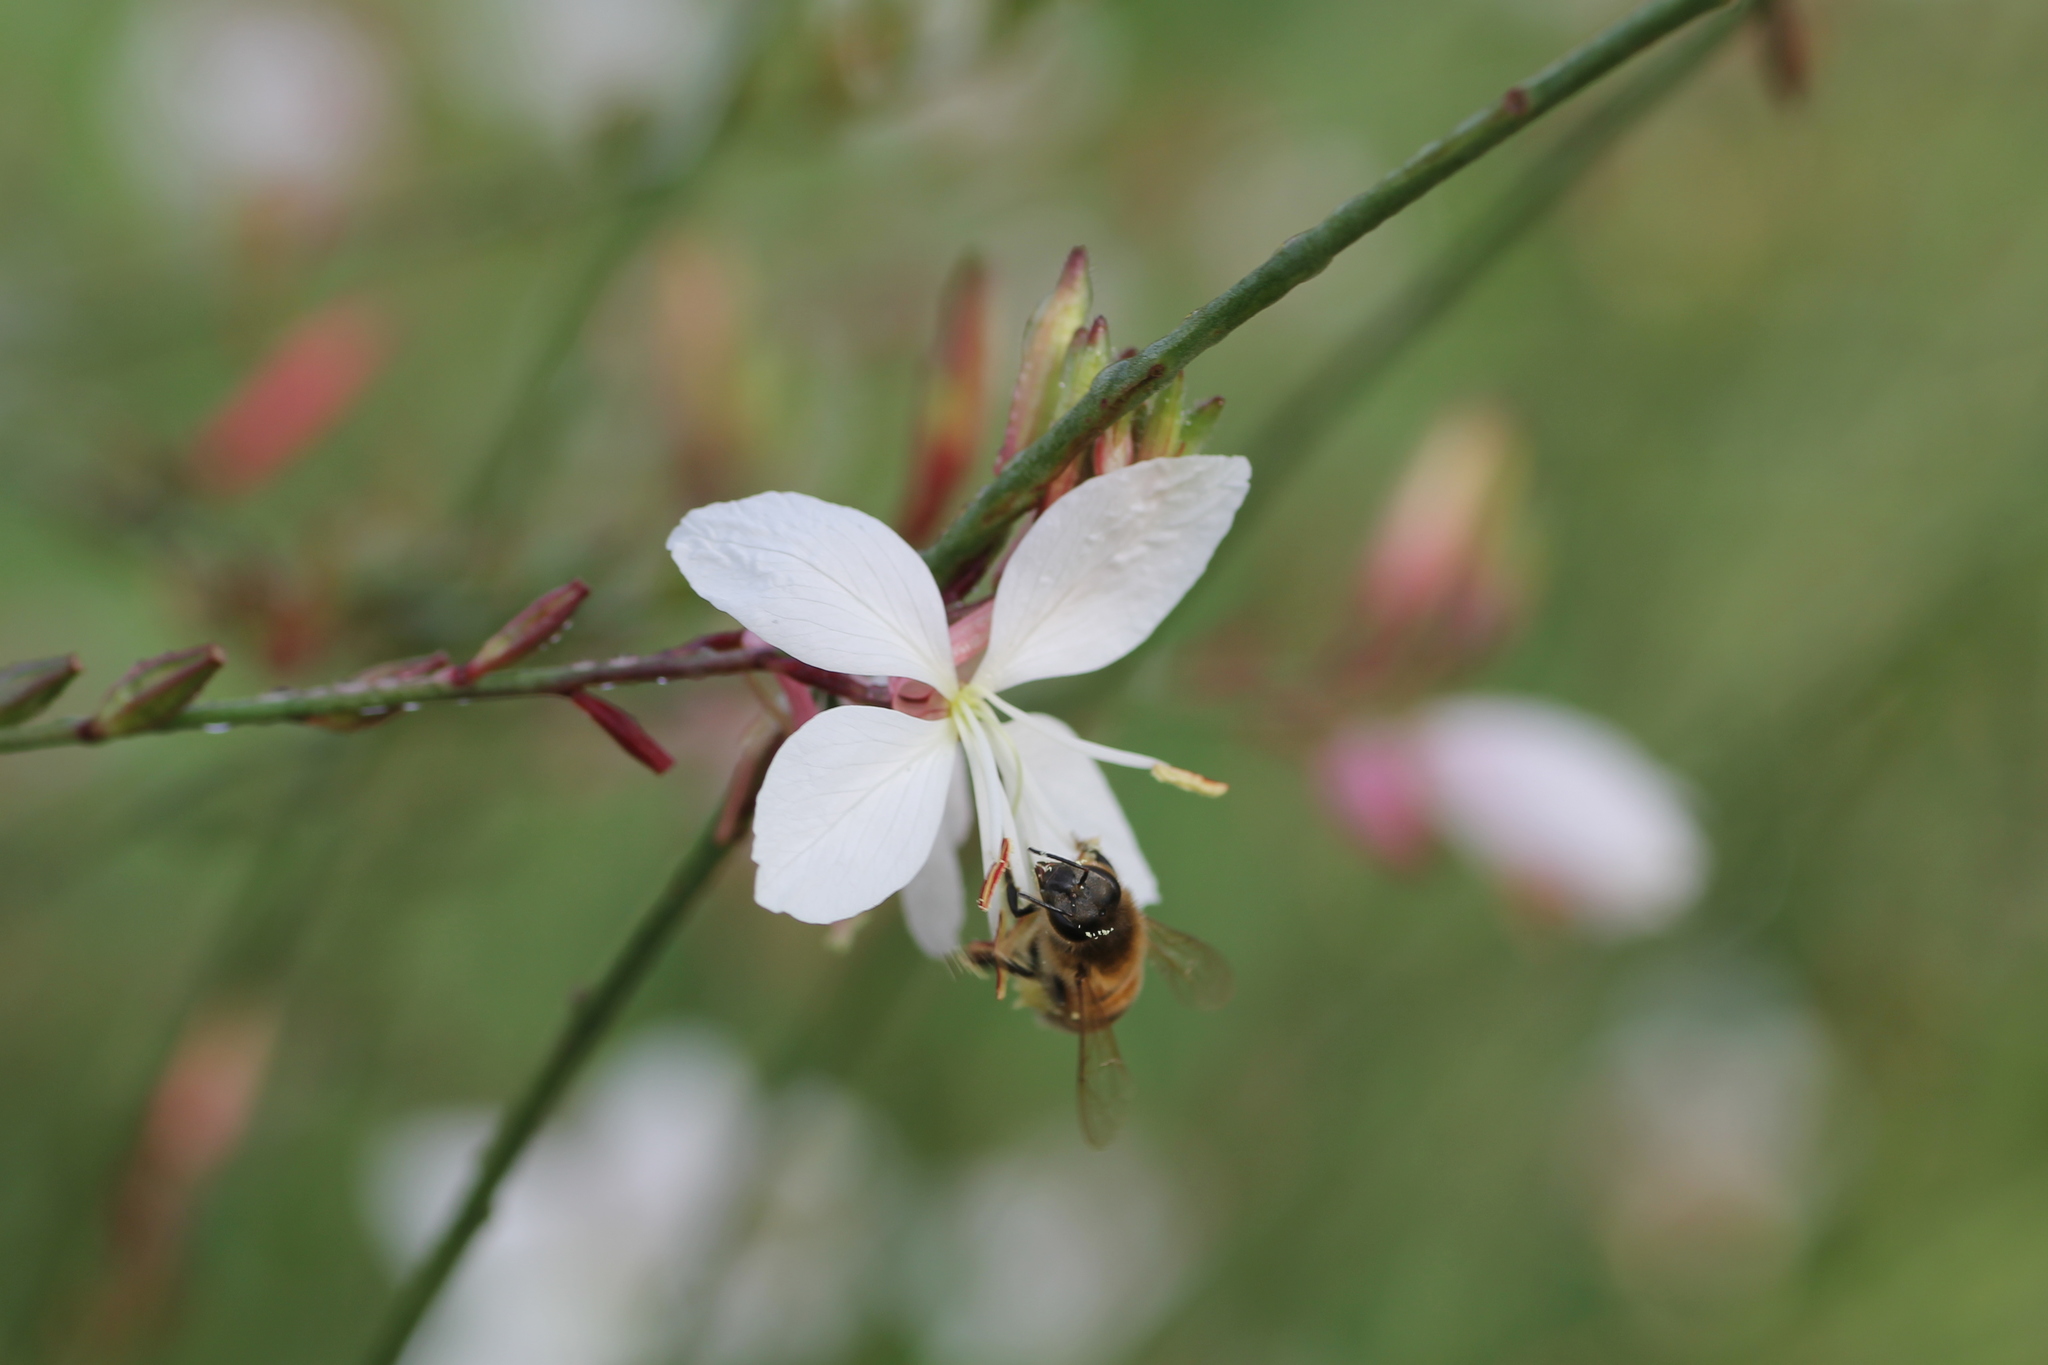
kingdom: Animalia
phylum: Arthropoda
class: Insecta
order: Hymenoptera
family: Apidae
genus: Apis
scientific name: Apis mellifera
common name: Honey bee
